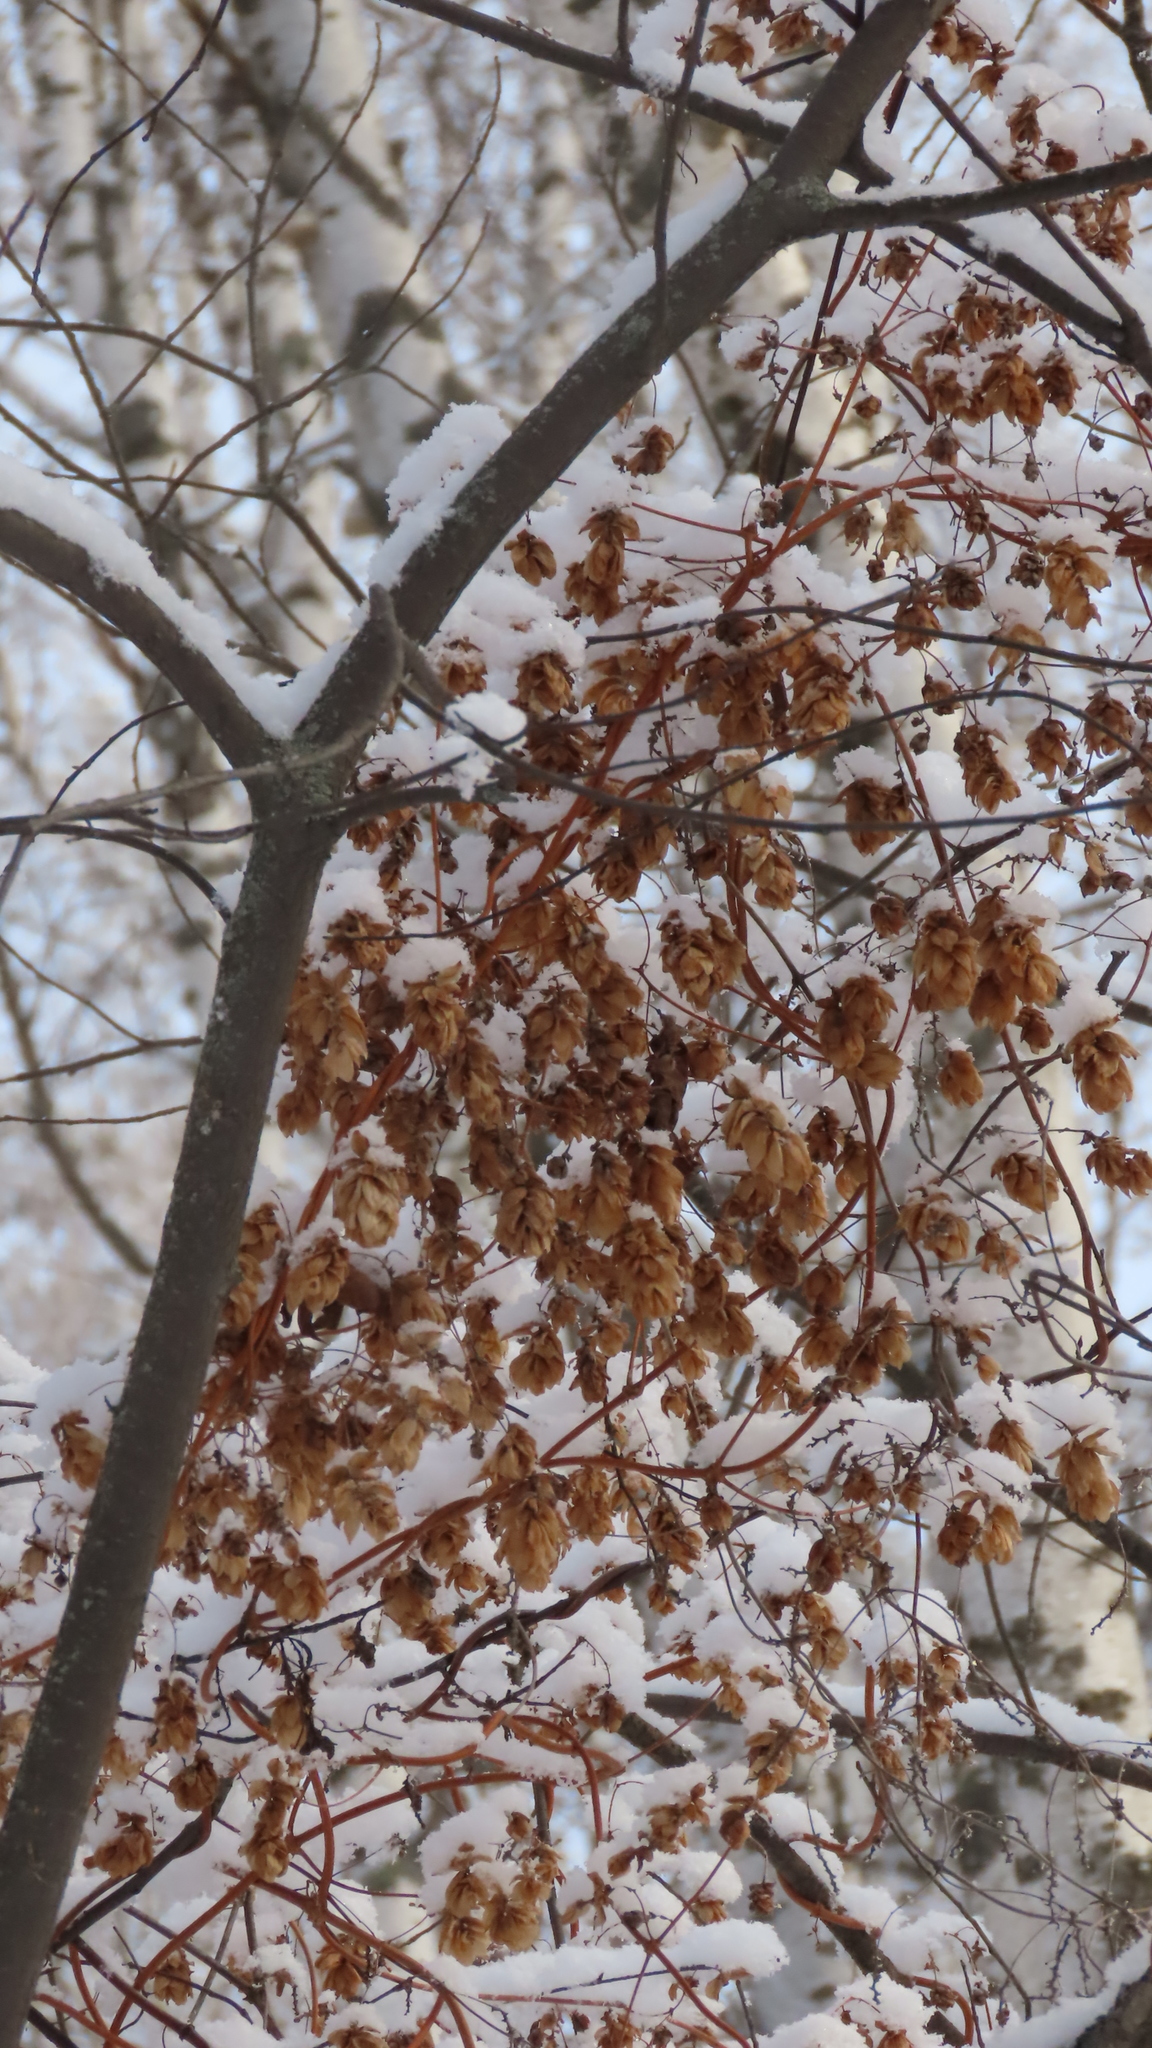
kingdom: Plantae
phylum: Tracheophyta
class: Magnoliopsida
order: Rosales
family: Cannabaceae
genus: Humulus
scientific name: Humulus lupulus
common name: Hop
